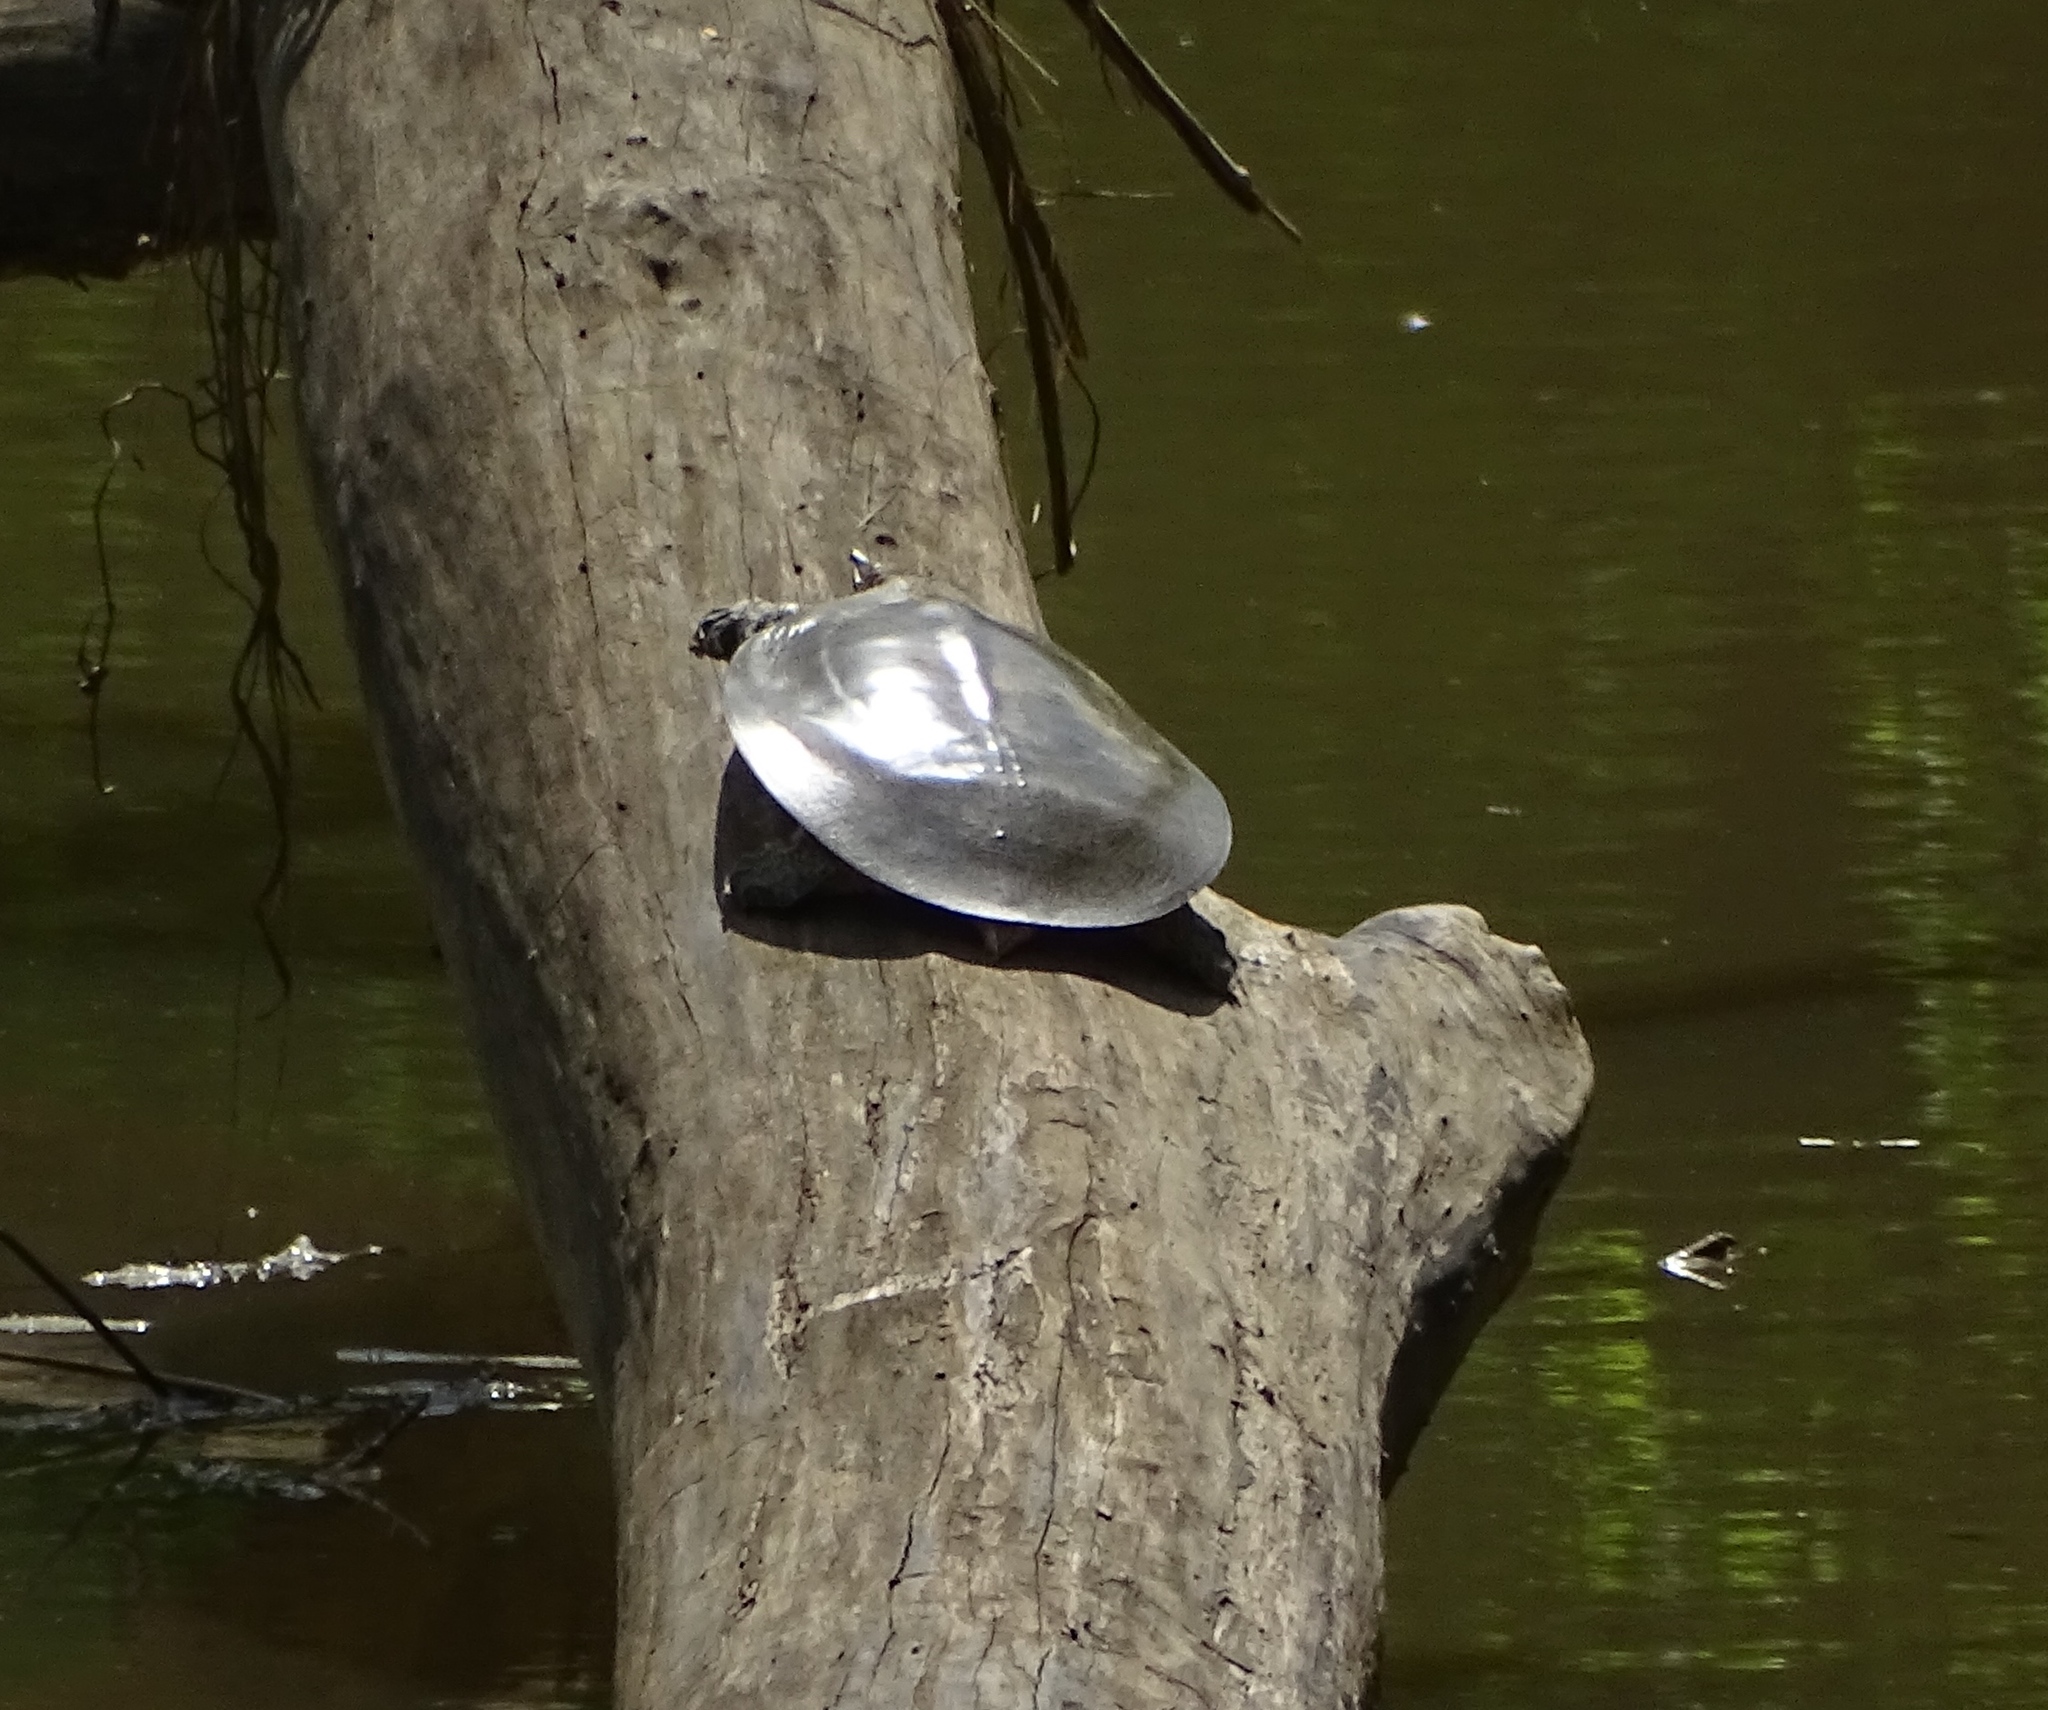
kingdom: Animalia
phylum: Chordata
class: Testudines
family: Trionychidae
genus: Apalone
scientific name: Apalone spinifera
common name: Spiny softshell turtle
